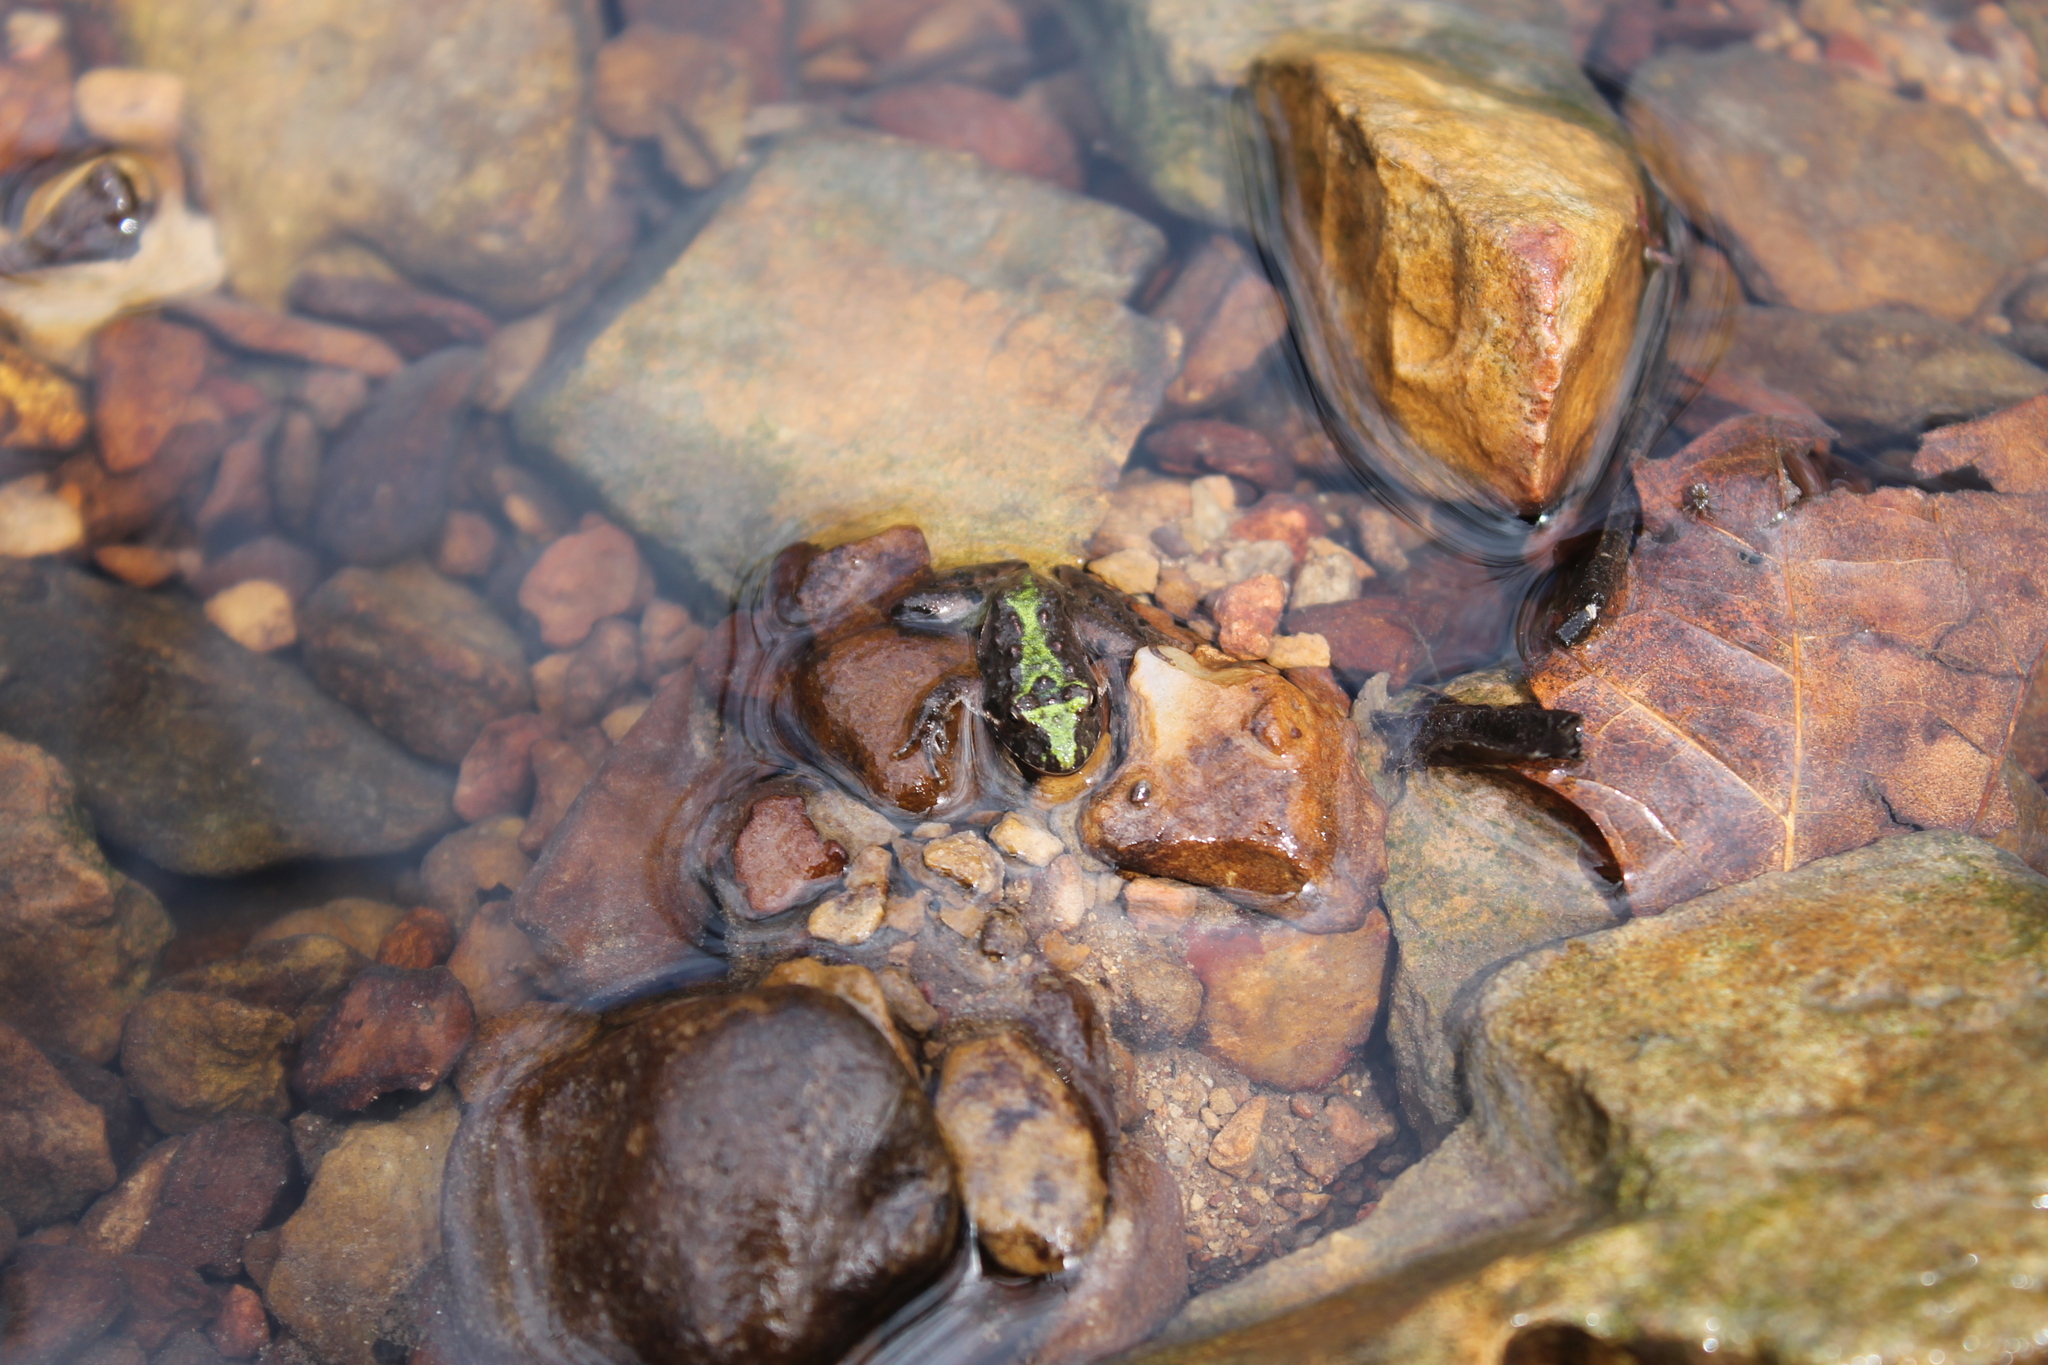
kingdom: Animalia
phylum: Chordata
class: Amphibia
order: Anura
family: Hylidae
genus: Acris
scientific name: Acris crepitans
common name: Northern cricket frog
